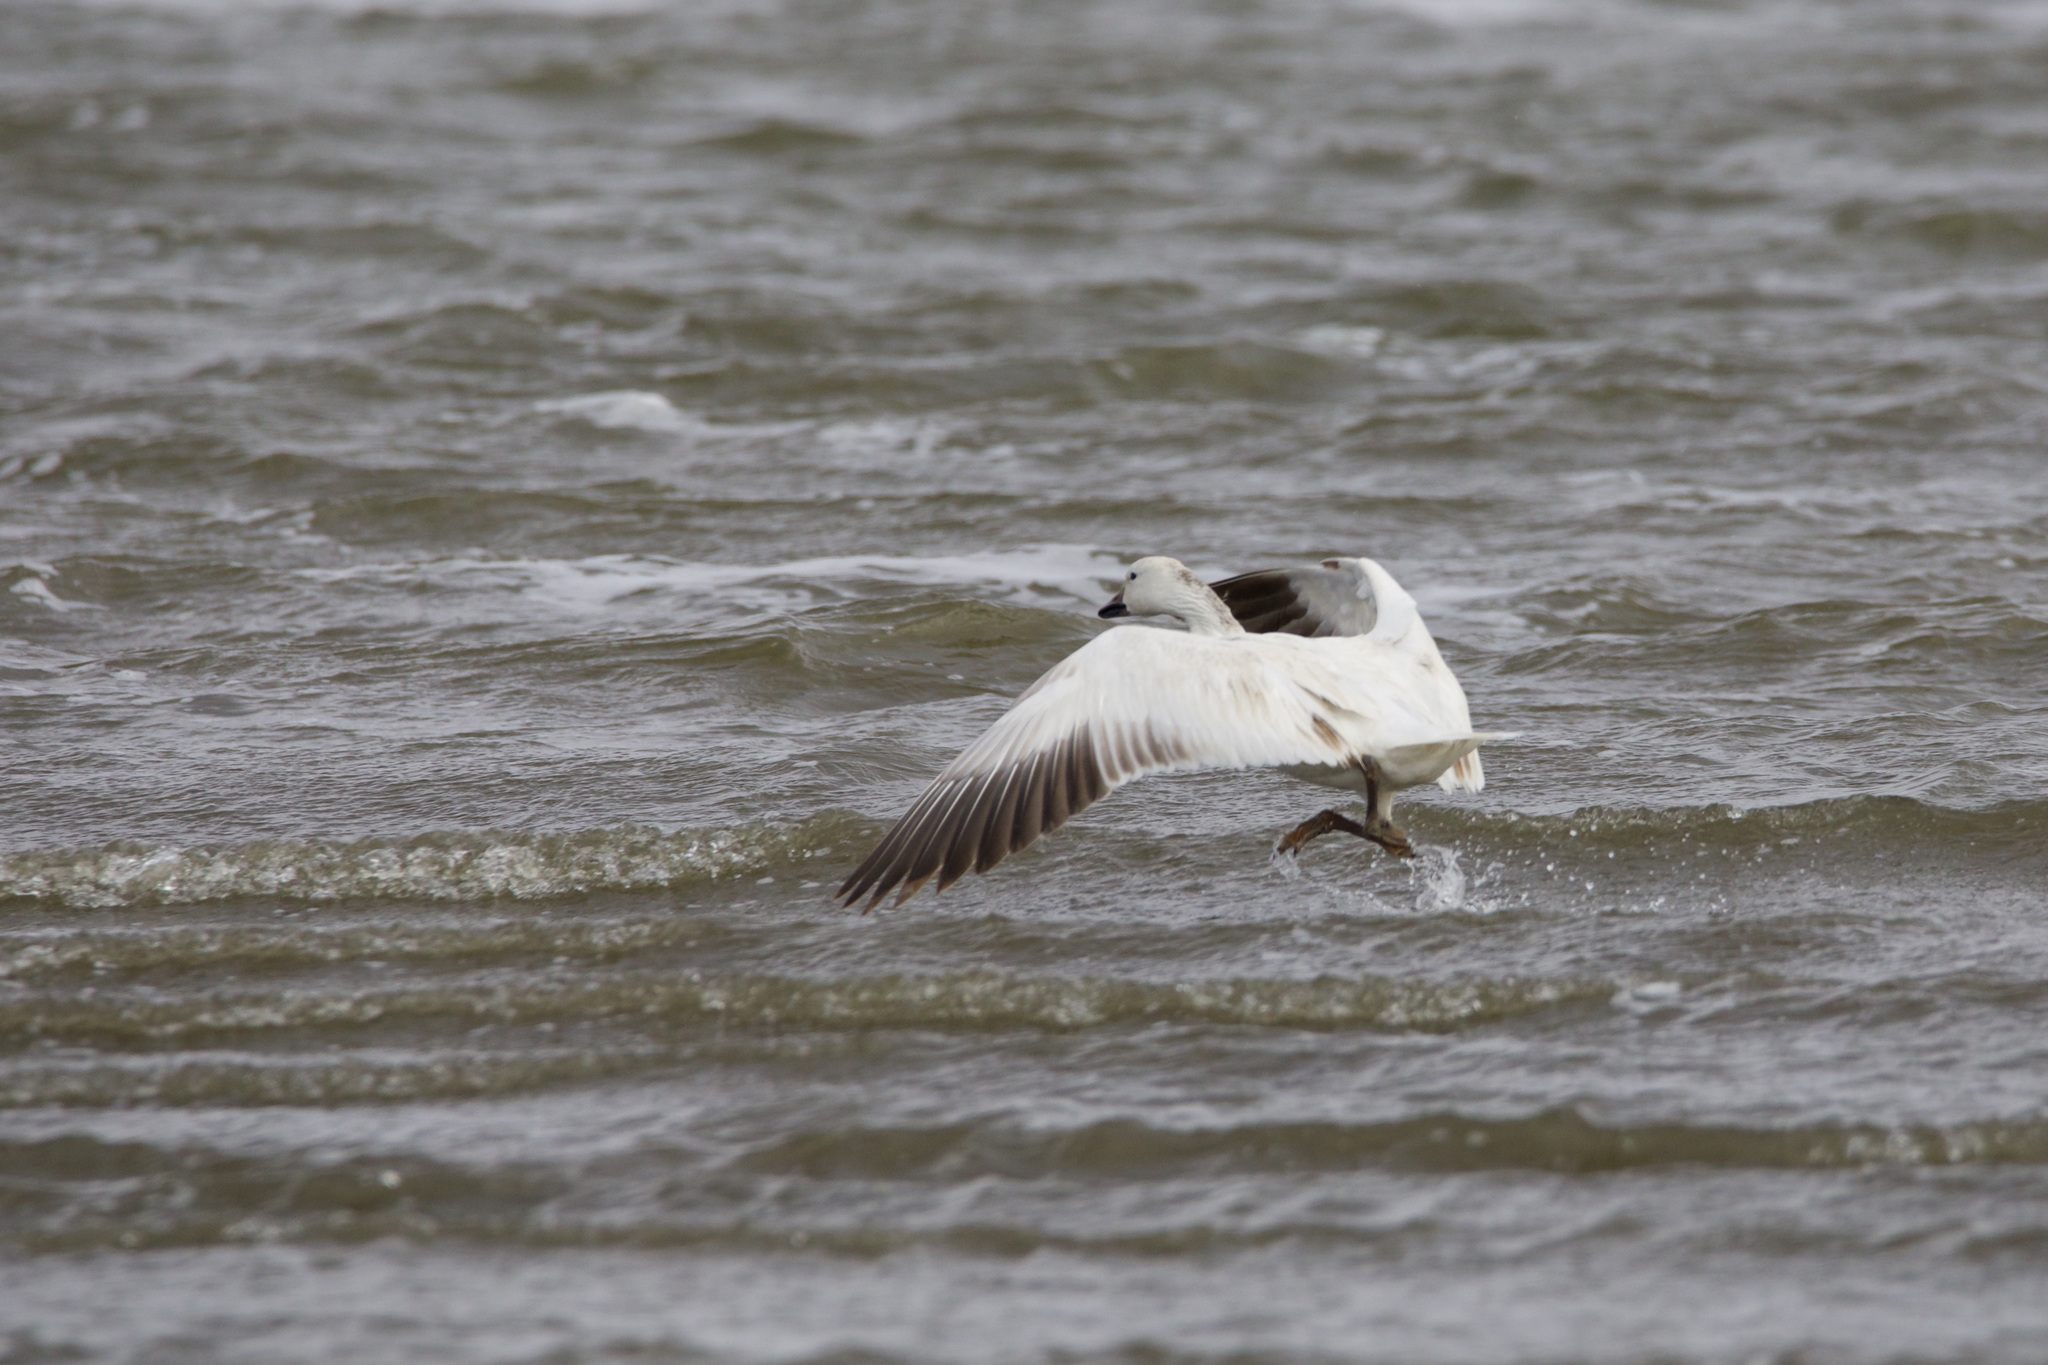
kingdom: Animalia
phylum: Chordata
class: Aves
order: Anseriformes
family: Anatidae
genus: Anser
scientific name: Anser caerulescens
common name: Snow goose
